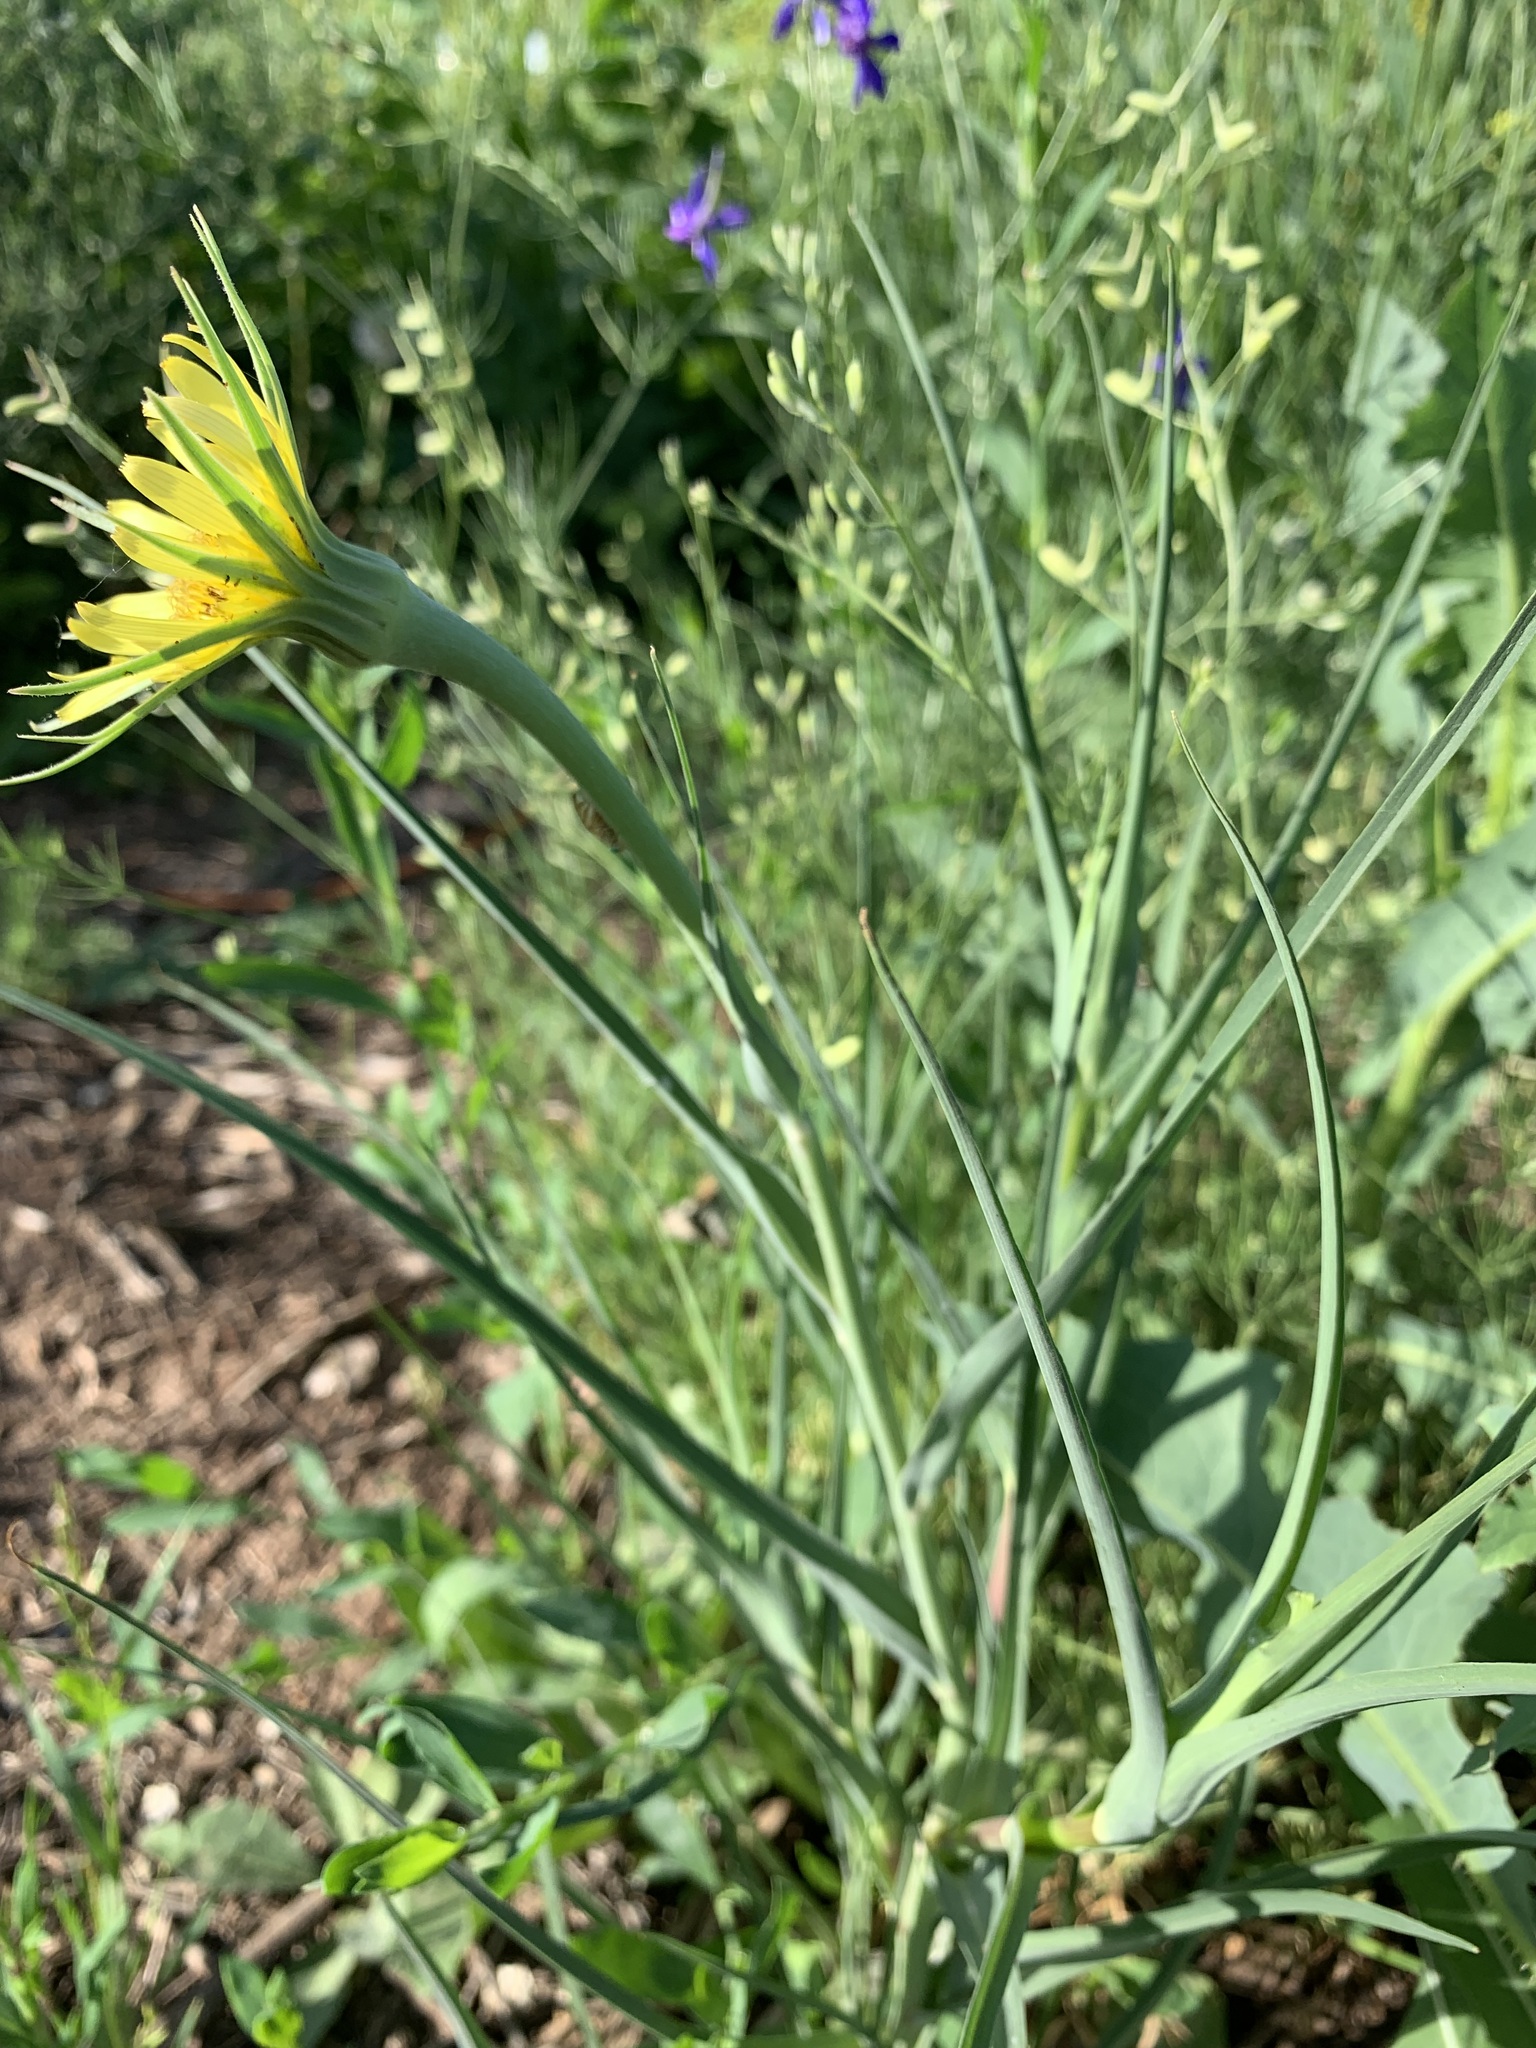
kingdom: Plantae
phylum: Tracheophyta
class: Magnoliopsida
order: Asterales
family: Asteraceae
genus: Tragopogon
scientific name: Tragopogon dubius
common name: Yellow salsify
